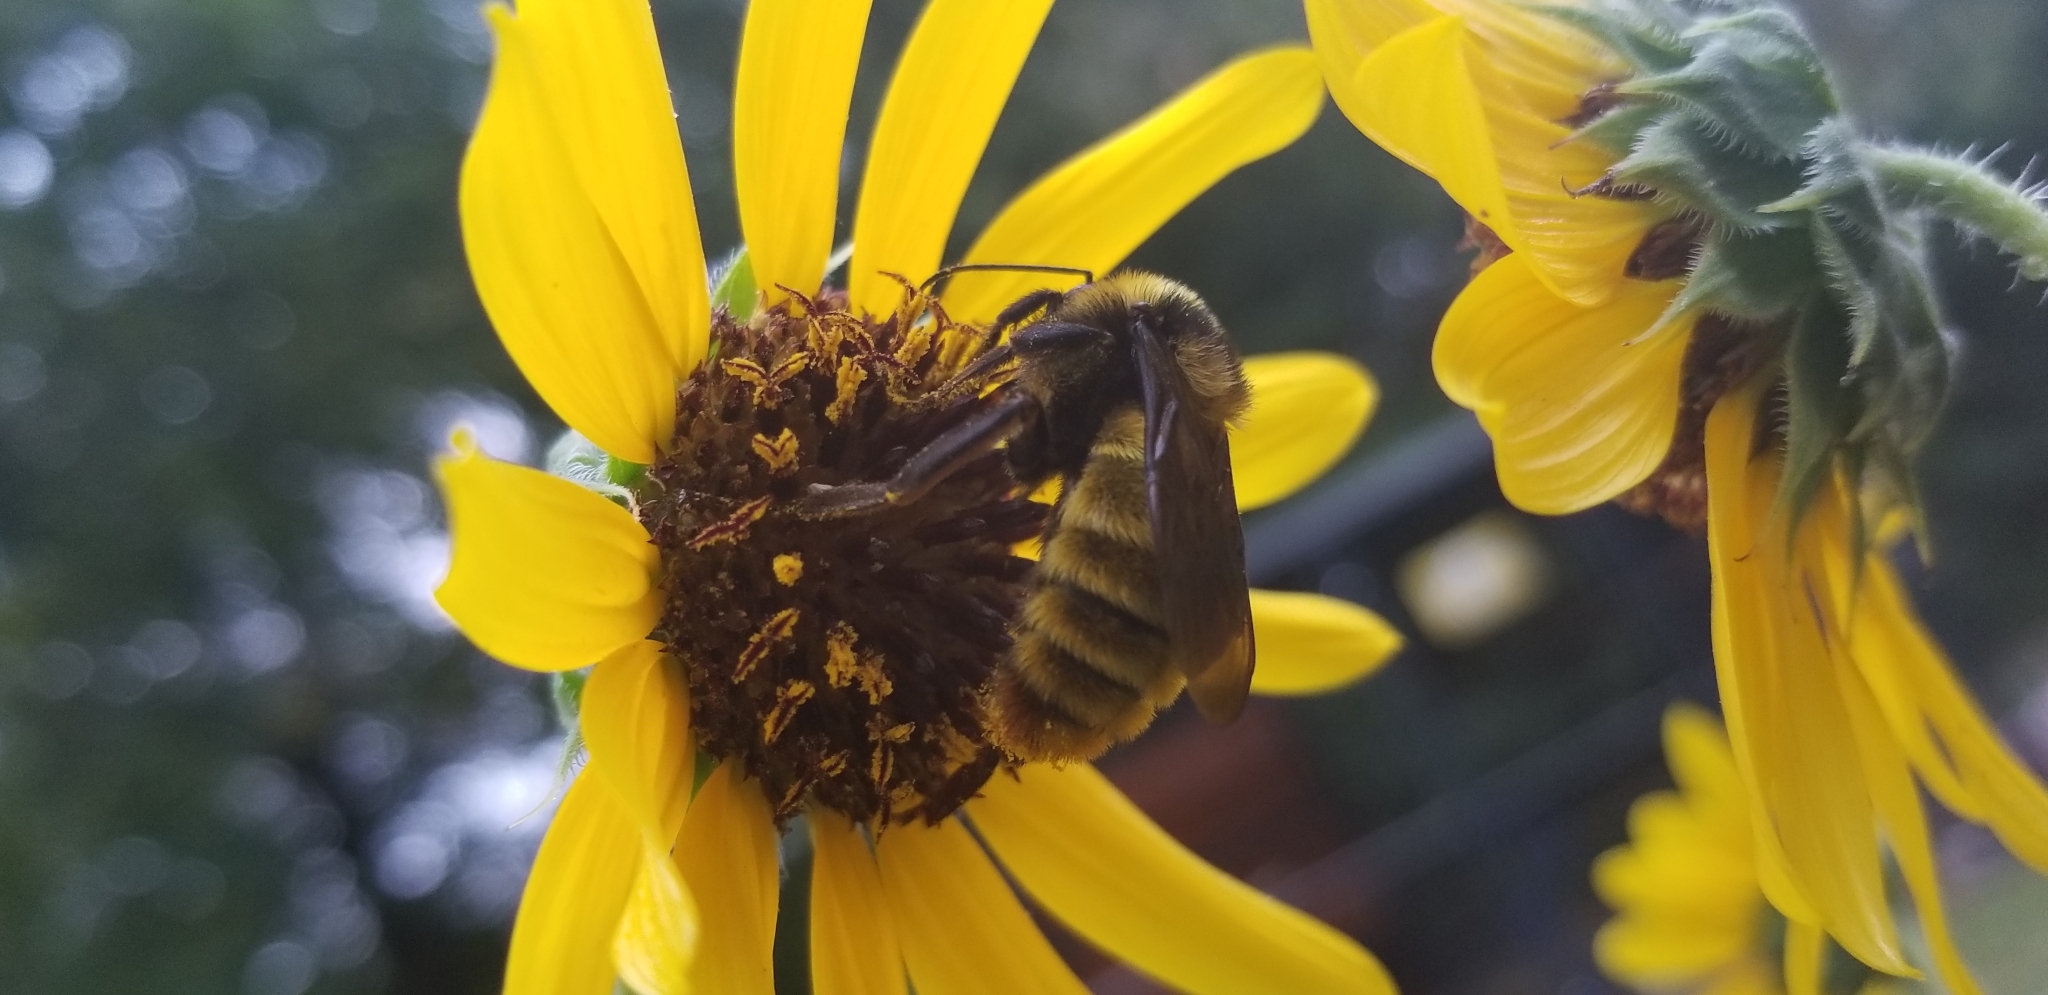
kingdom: Animalia
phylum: Arthropoda
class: Insecta
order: Hymenoptera
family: Apidae
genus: Bombus
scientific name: Bombus pensylvanicus
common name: Bumble bee
